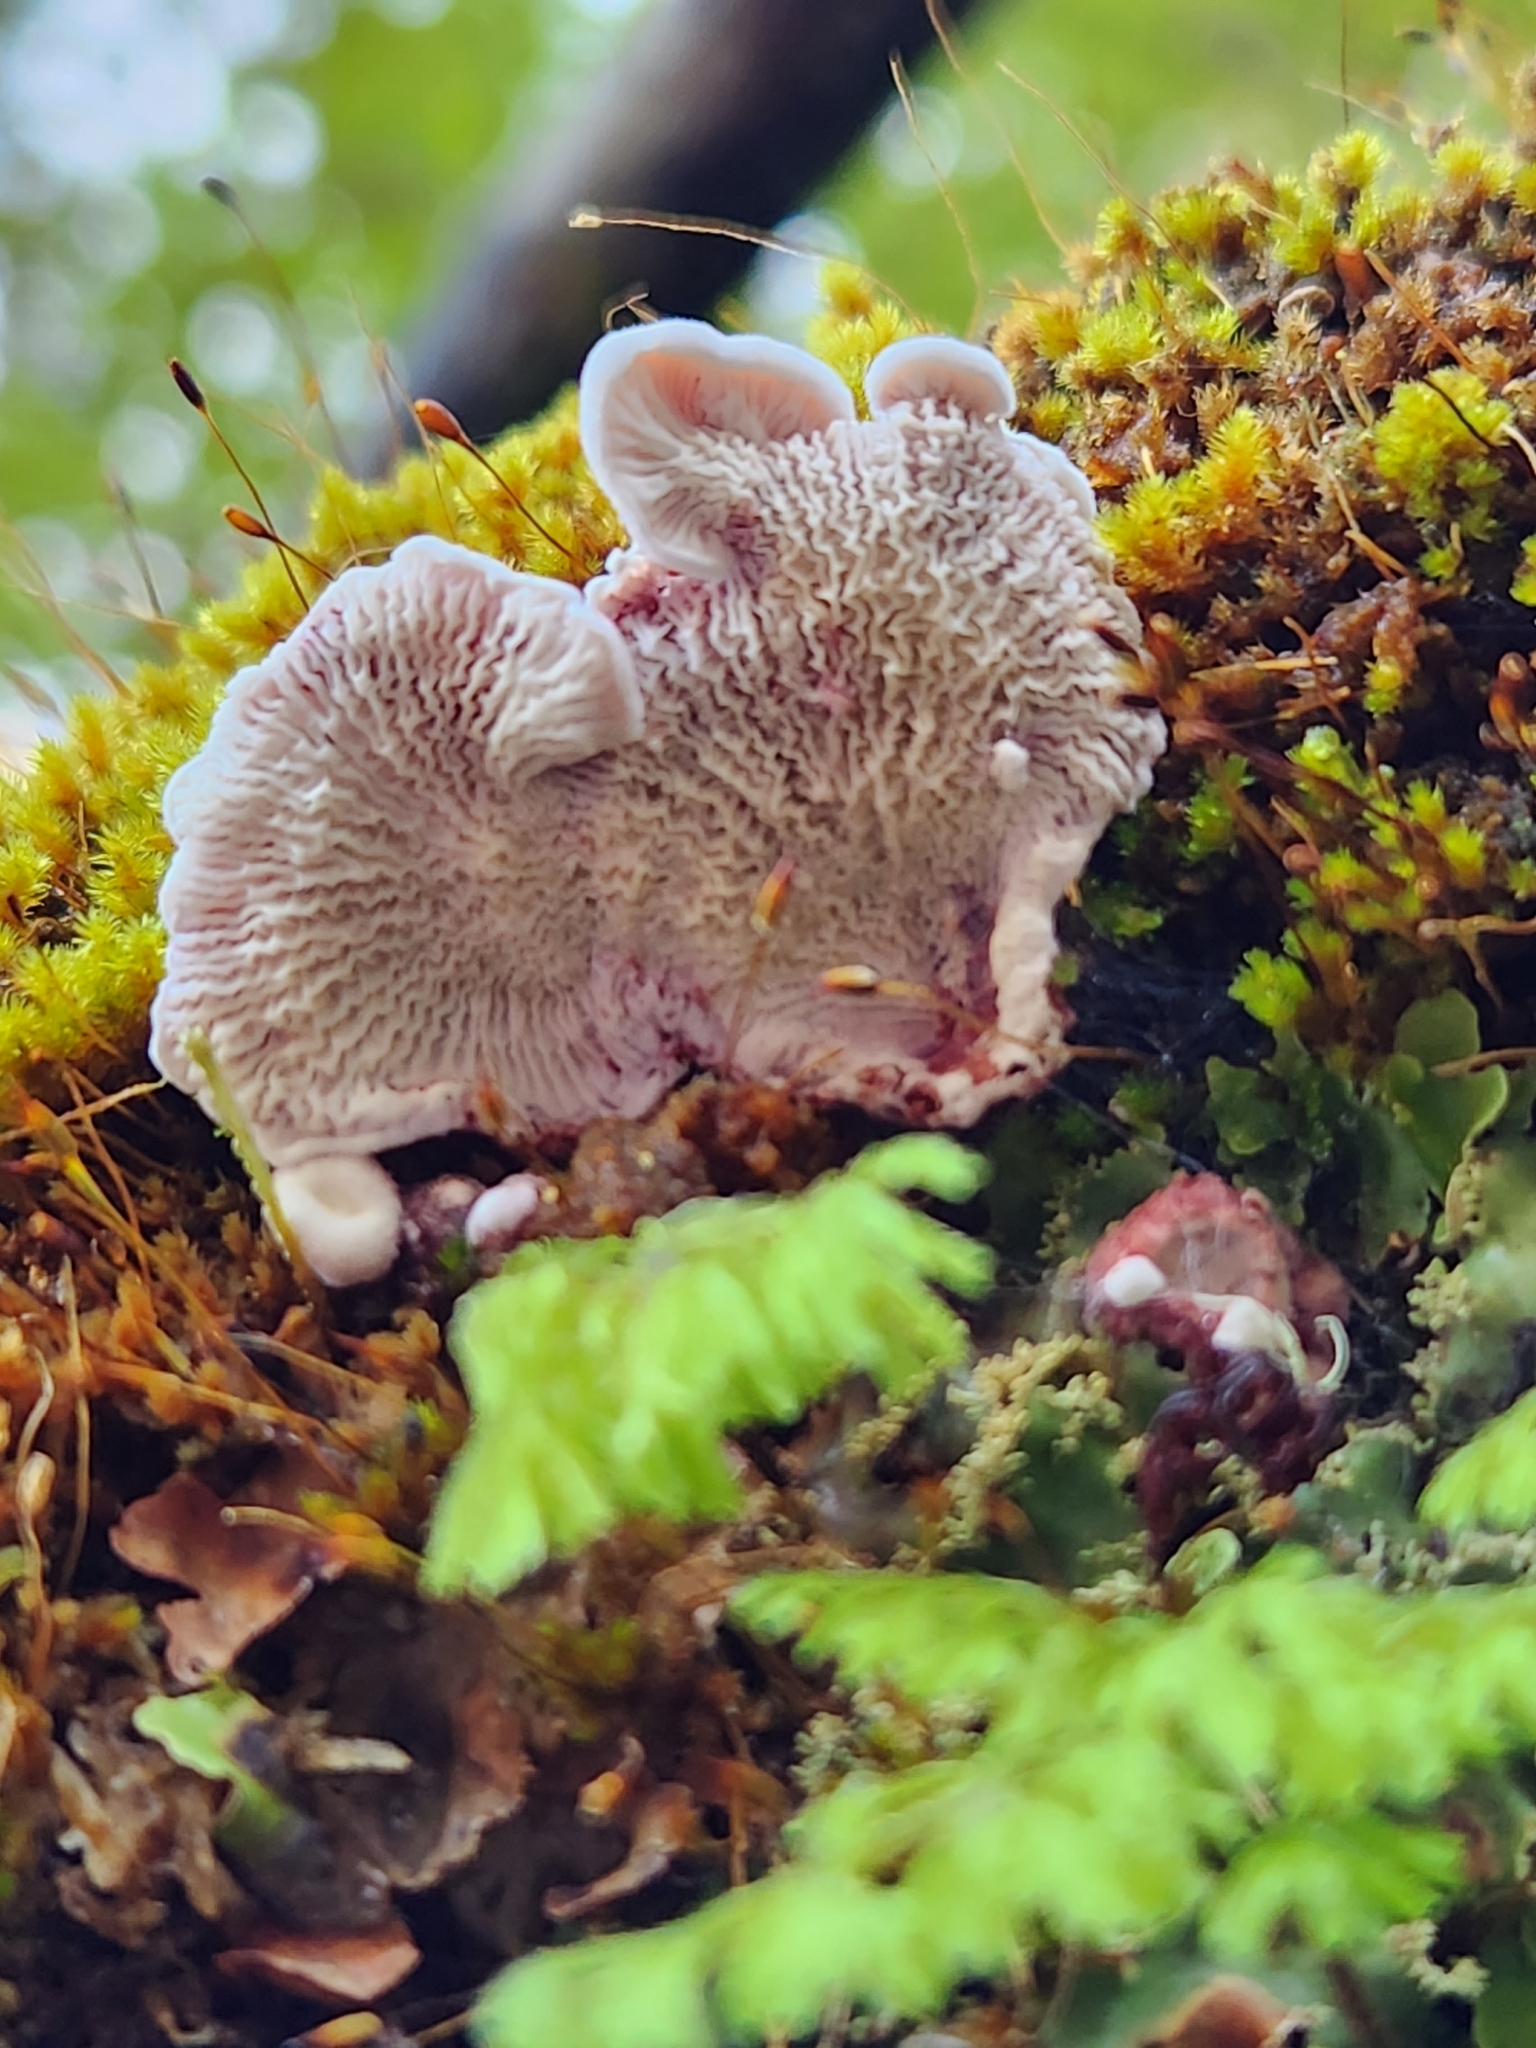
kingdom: Fungi
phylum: Basidiomycota
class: Agaricomycetes
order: Polyporales
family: Meruliaceae
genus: Phlebia
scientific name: Phlebia
